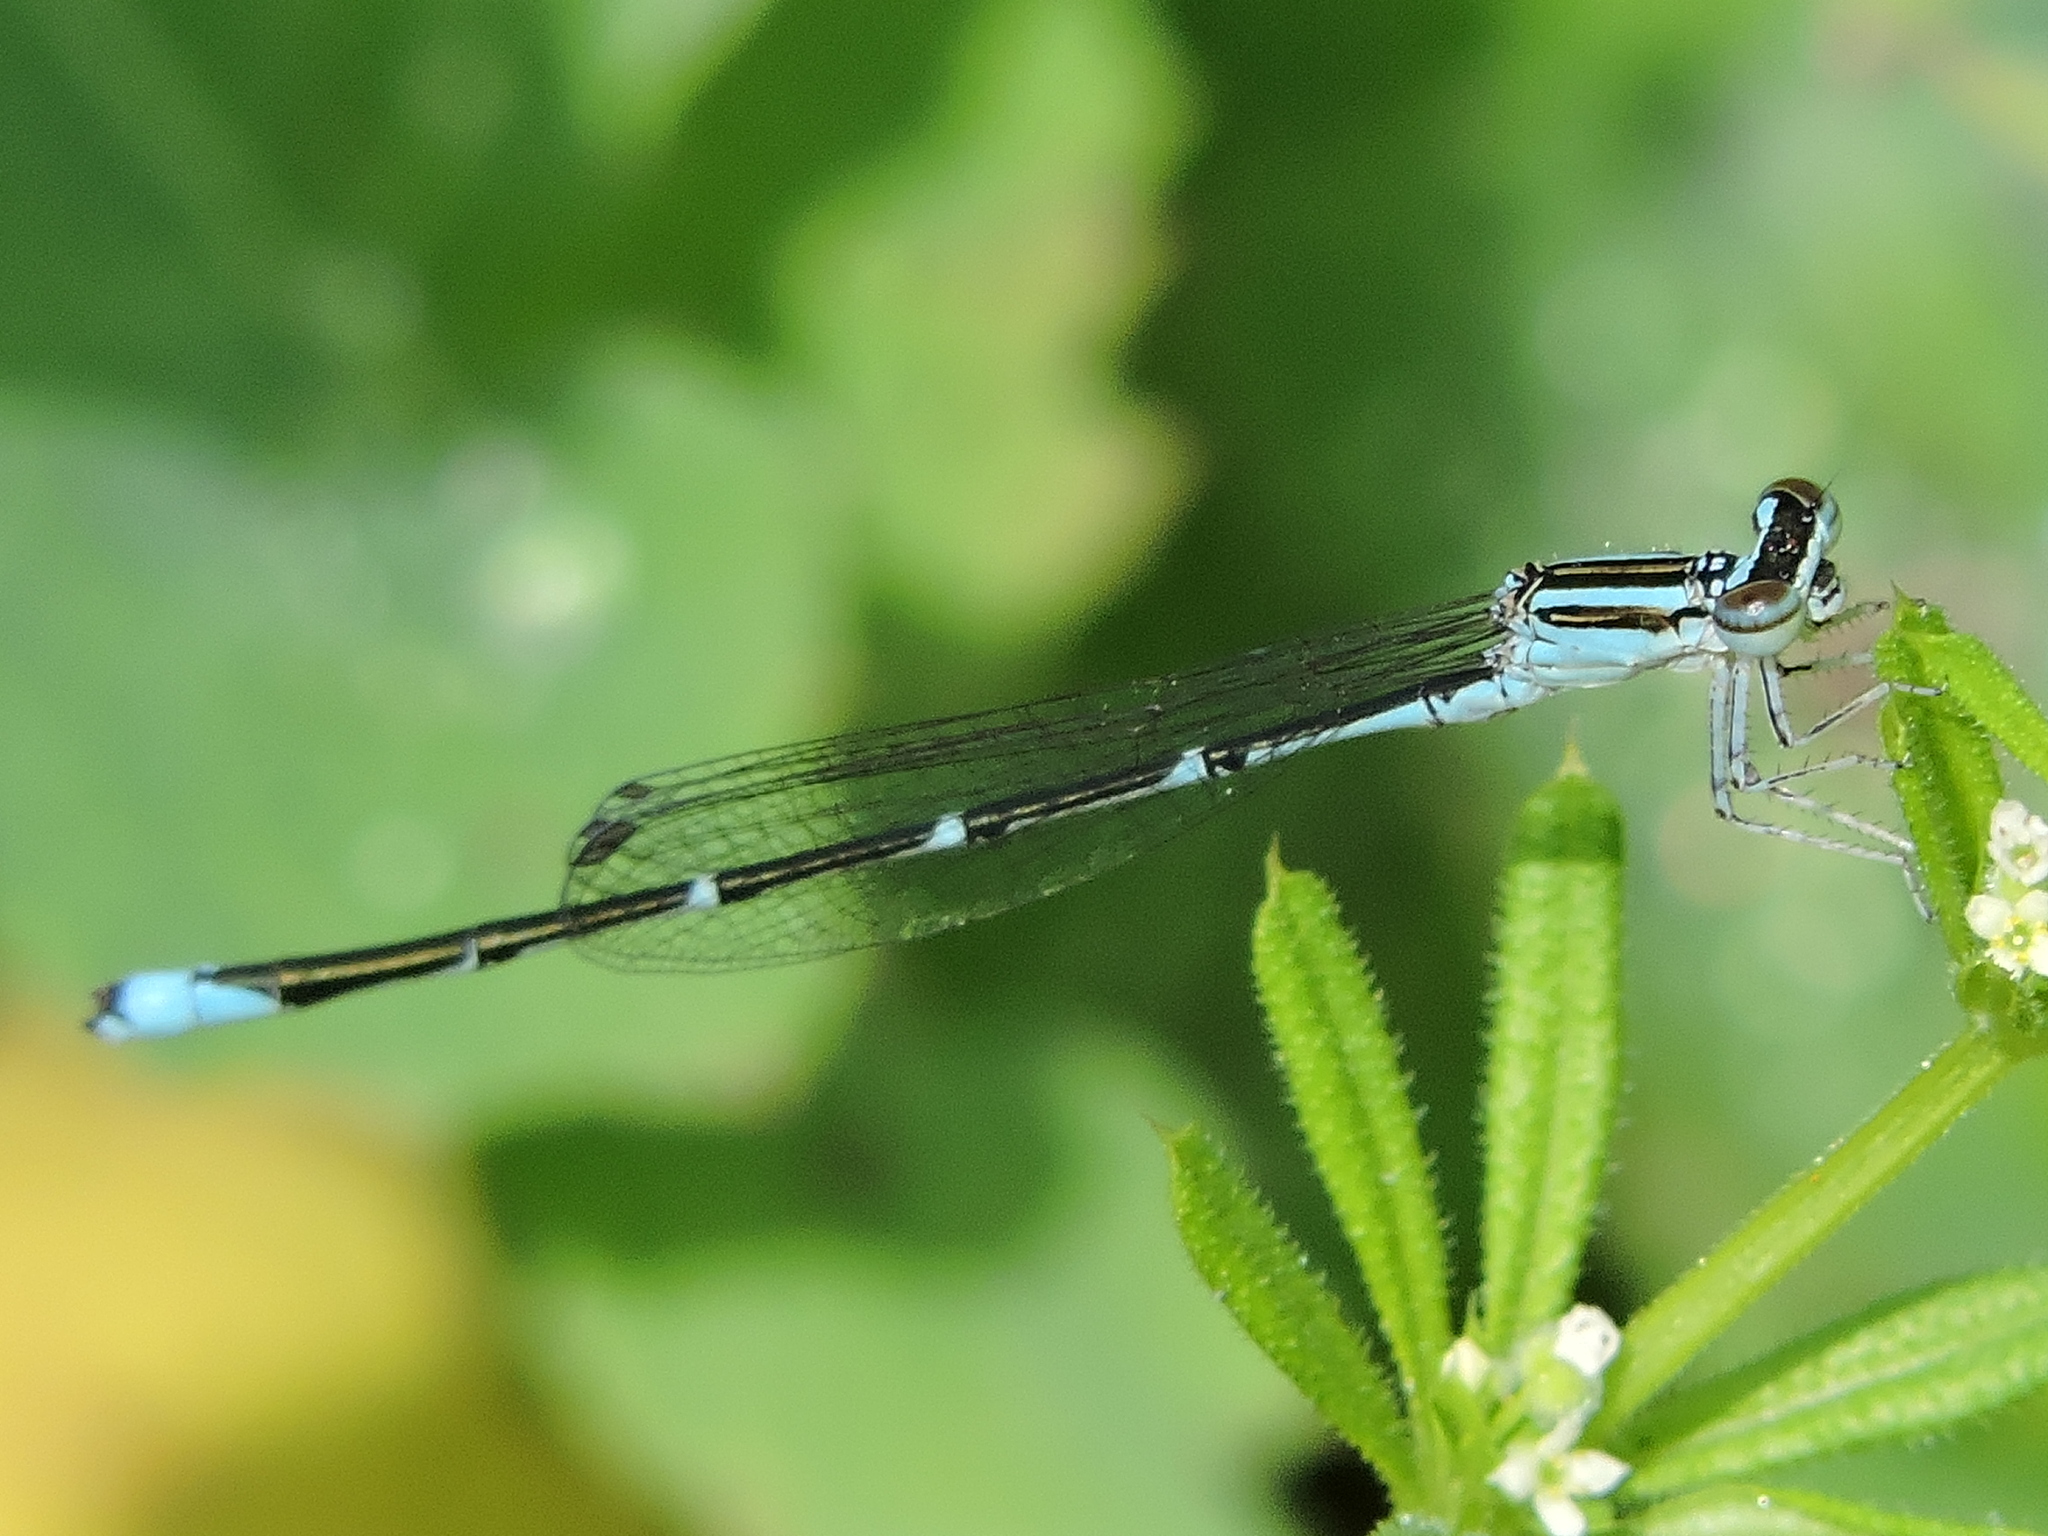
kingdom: Animalia
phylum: Arthropoda
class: Insecta
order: Odonata
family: Coenagrionidae
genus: Enallagma
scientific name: Enallagma exsulans
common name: Stream bluet
